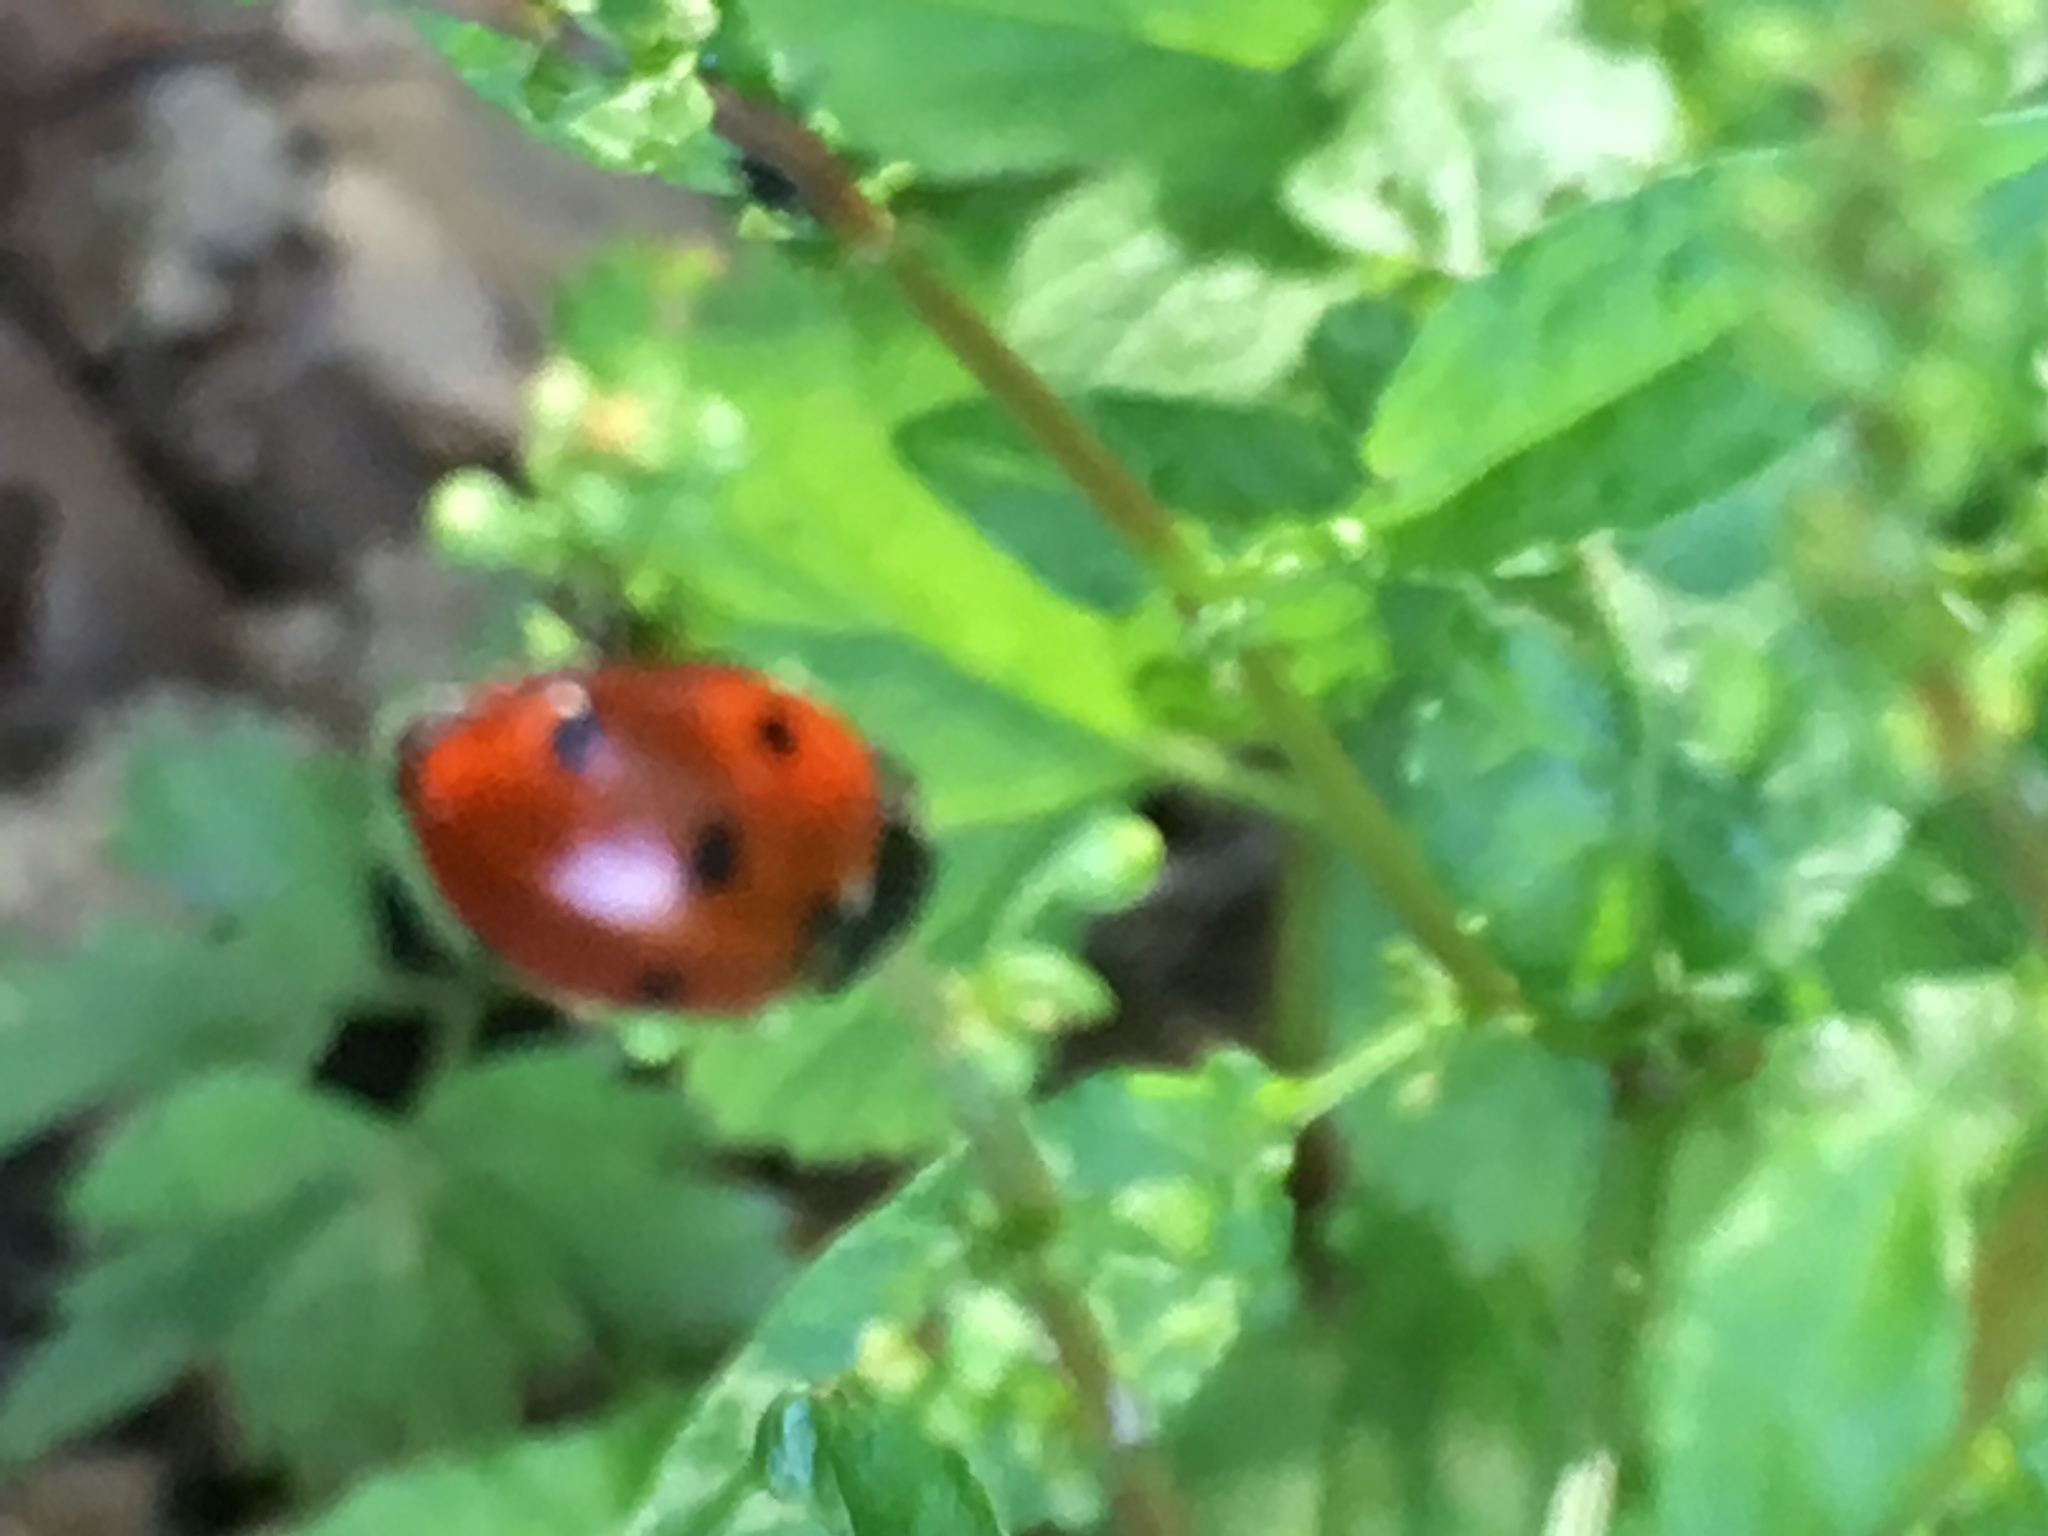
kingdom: Animalia
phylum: Arthropoda
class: Insecta
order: Coleoptera
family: Coccinellidae
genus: Coccinella
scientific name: Coccinella septempunctata
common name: Sevenspotted lady beetle
